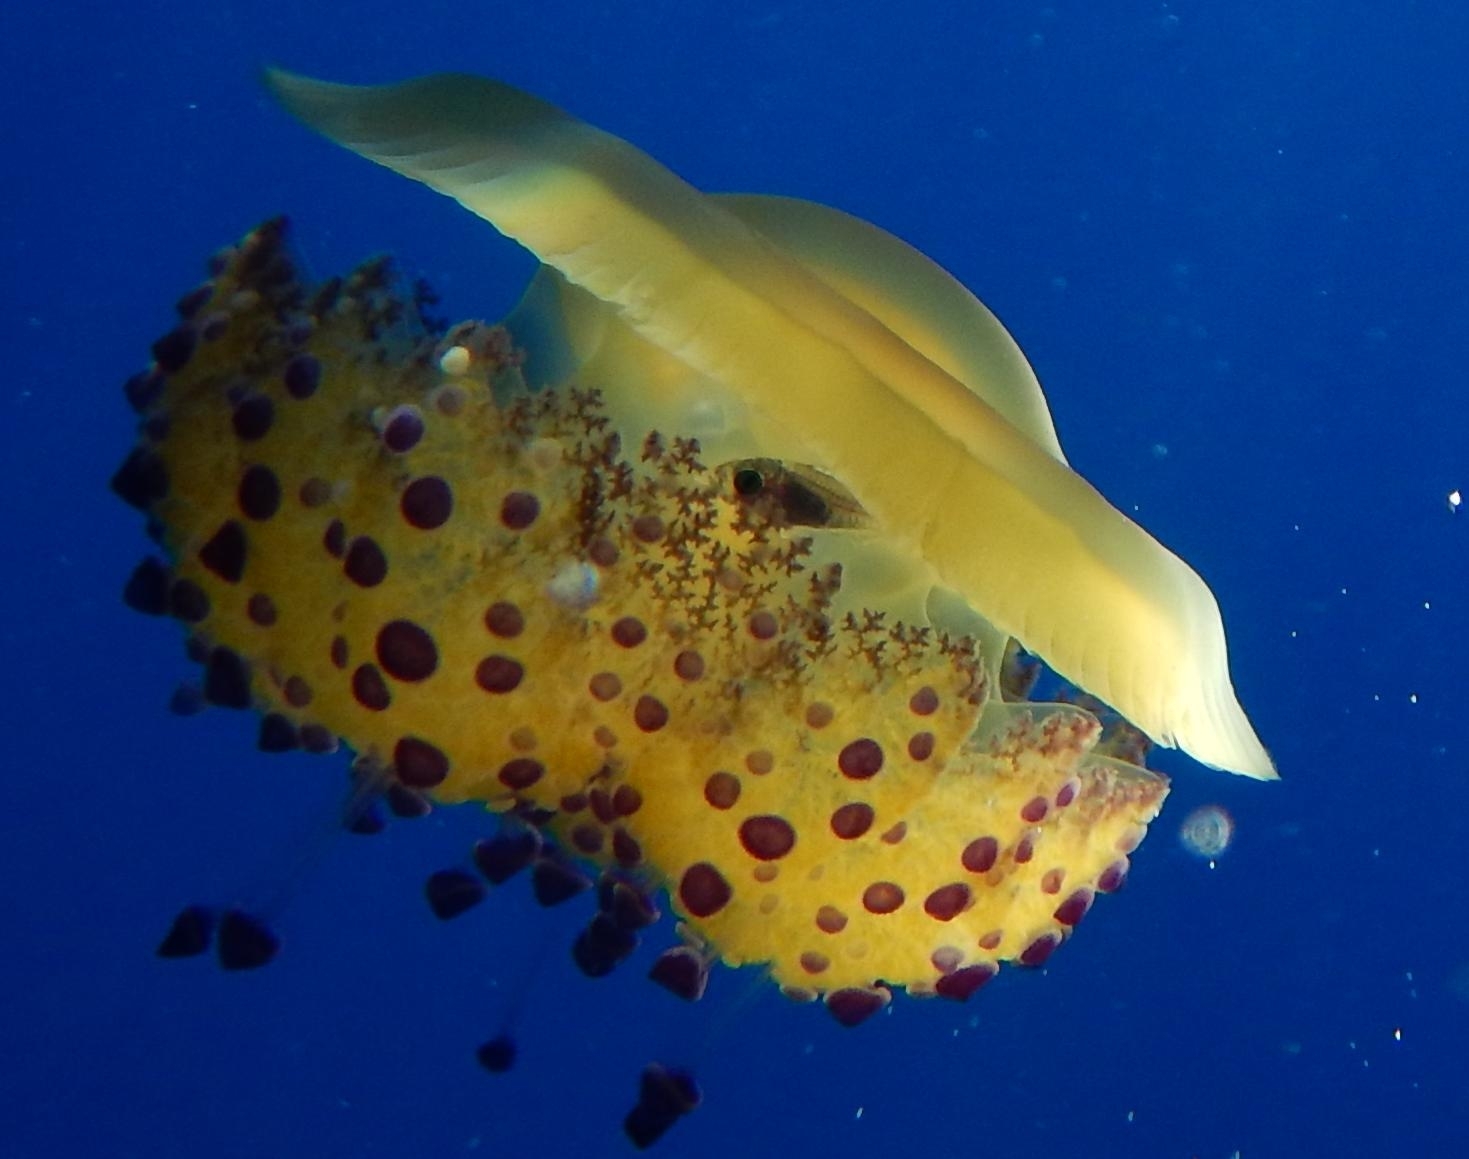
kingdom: Animalia
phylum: Cnidaria
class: Scyphozoa
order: Rhizostomeae
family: Cepheidae
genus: Cotylorhiza
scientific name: Cotylorhiza tuberculata
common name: Mediterranean jelly
